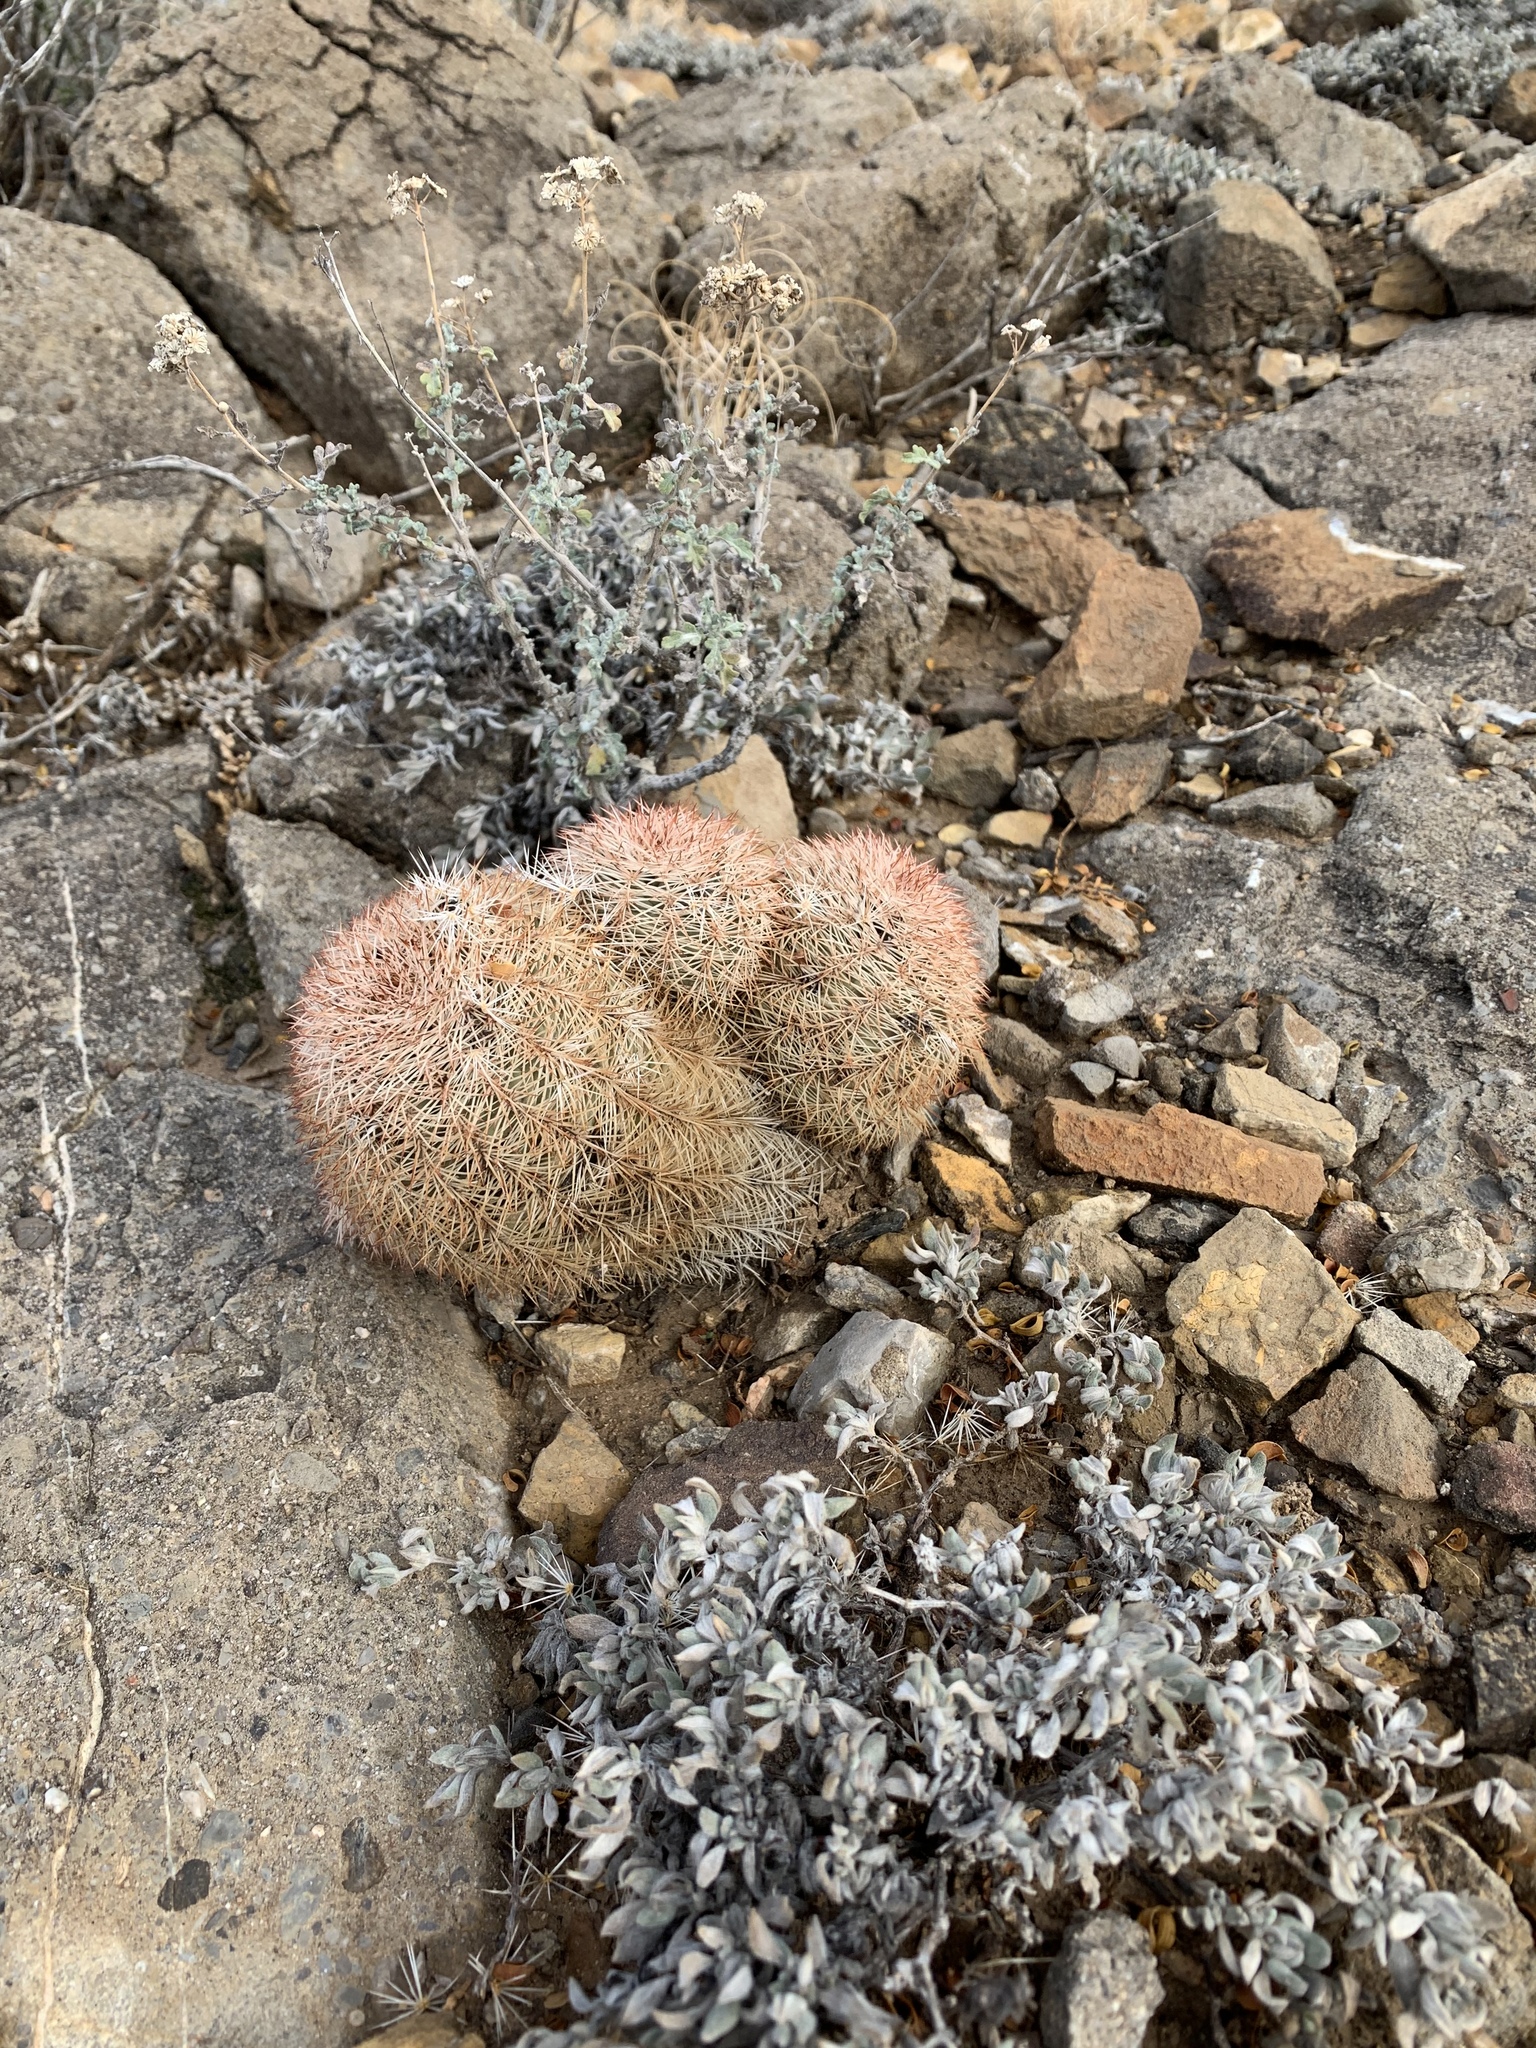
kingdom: Plantae
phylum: Tracheophyta
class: Magnoliopsida
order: Caryophyllales
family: Cactaceae
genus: Echinocereus
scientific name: Echinocereus dasyacanthus
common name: Spiny hedgehog cactus
